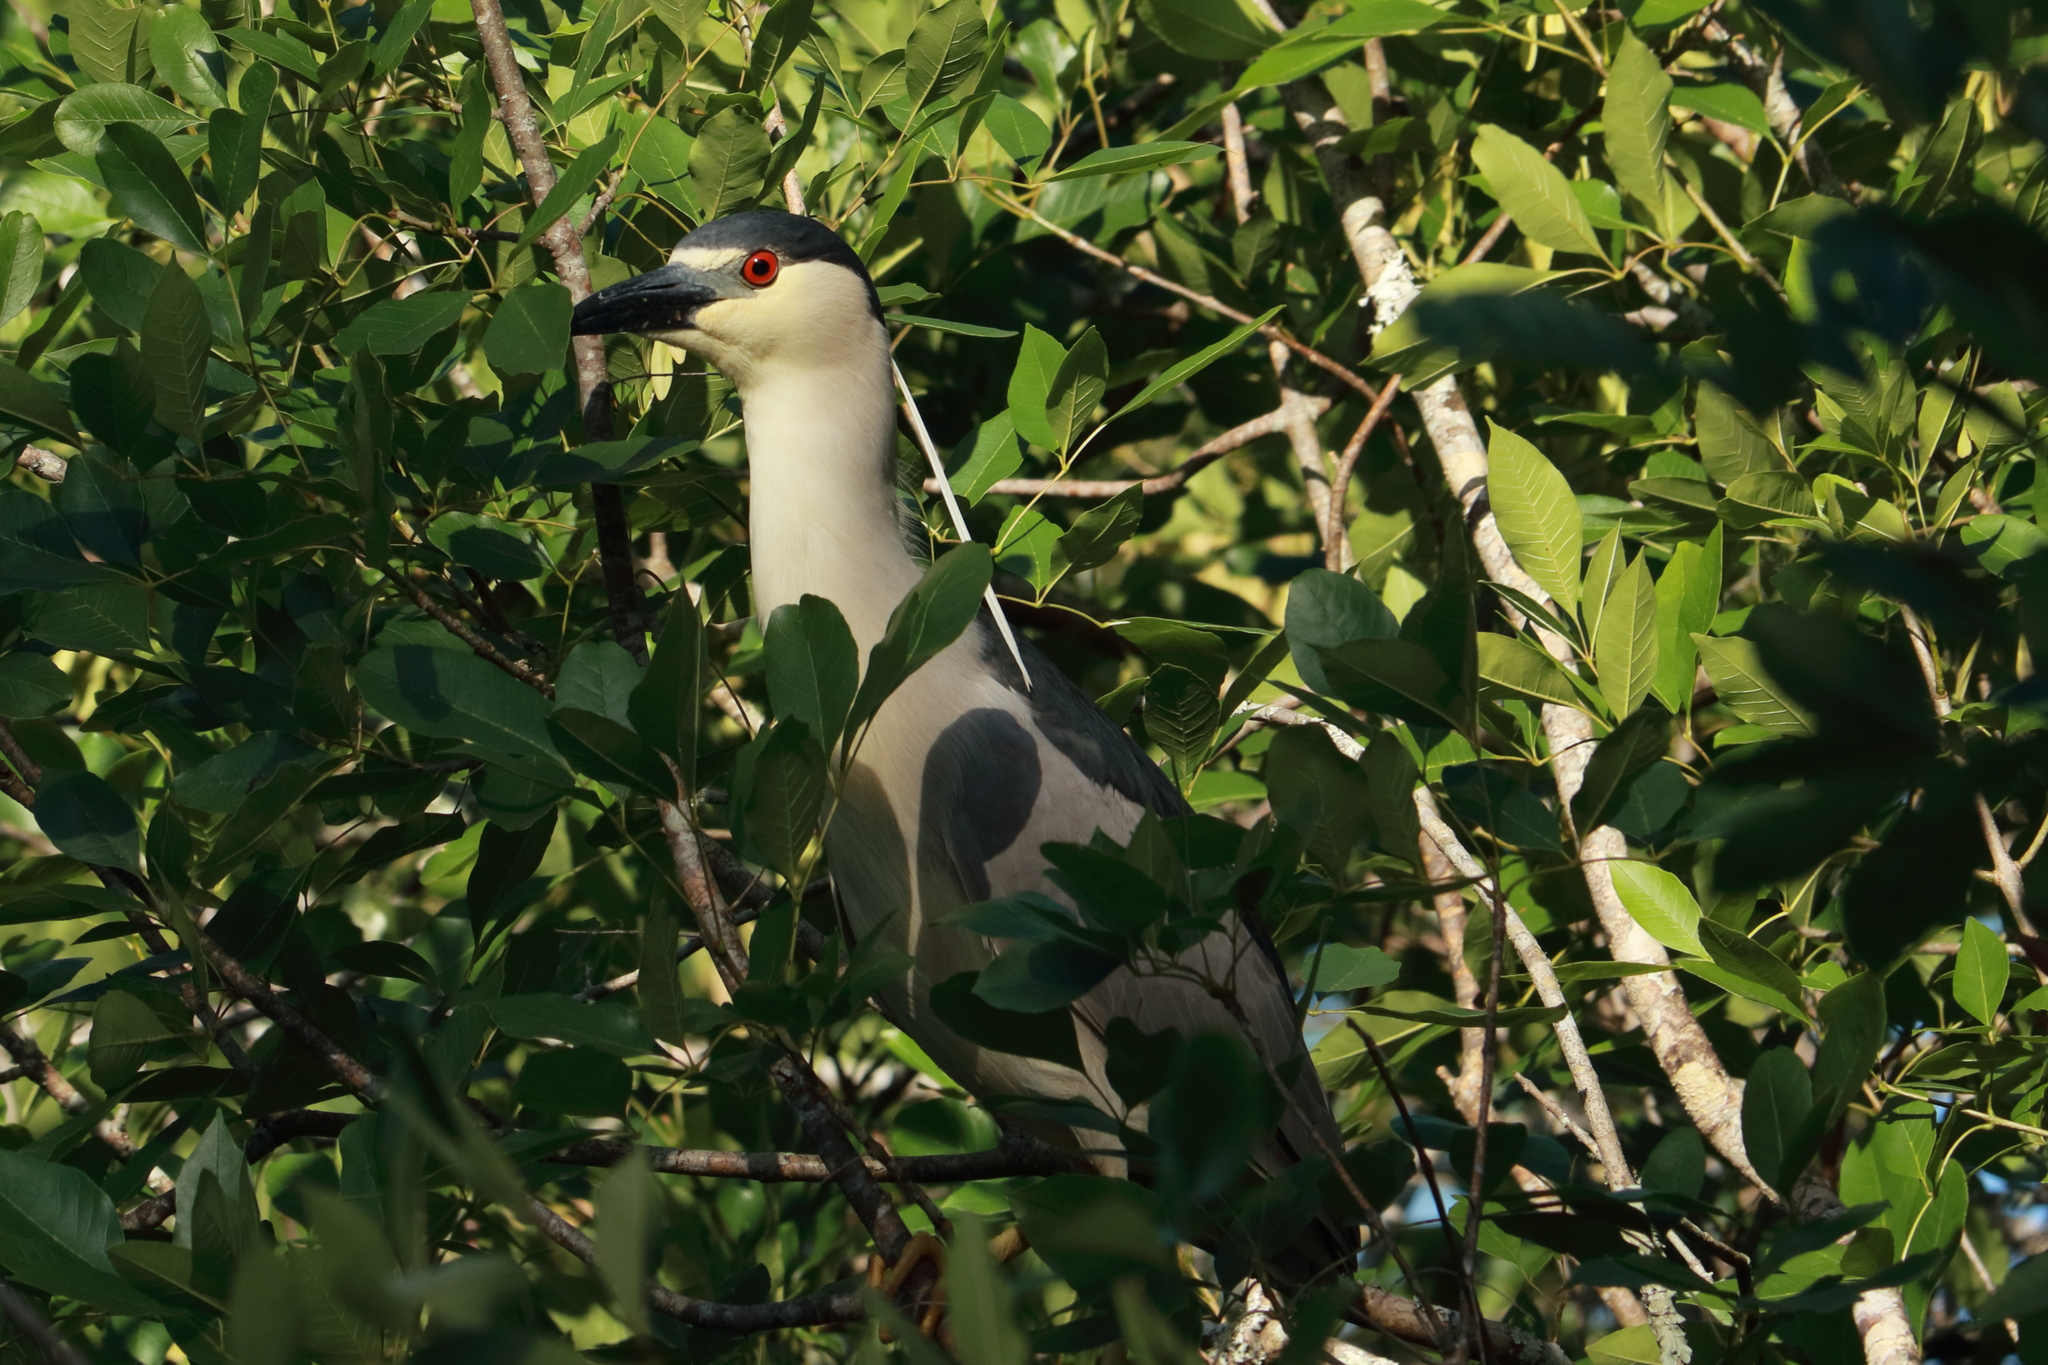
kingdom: Animalia
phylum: Chordata
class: Aves
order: Pelecaniformes
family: Ardeidae
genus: Nycticorax
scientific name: Nycticorax nycticorax
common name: Black-crowned night heron
